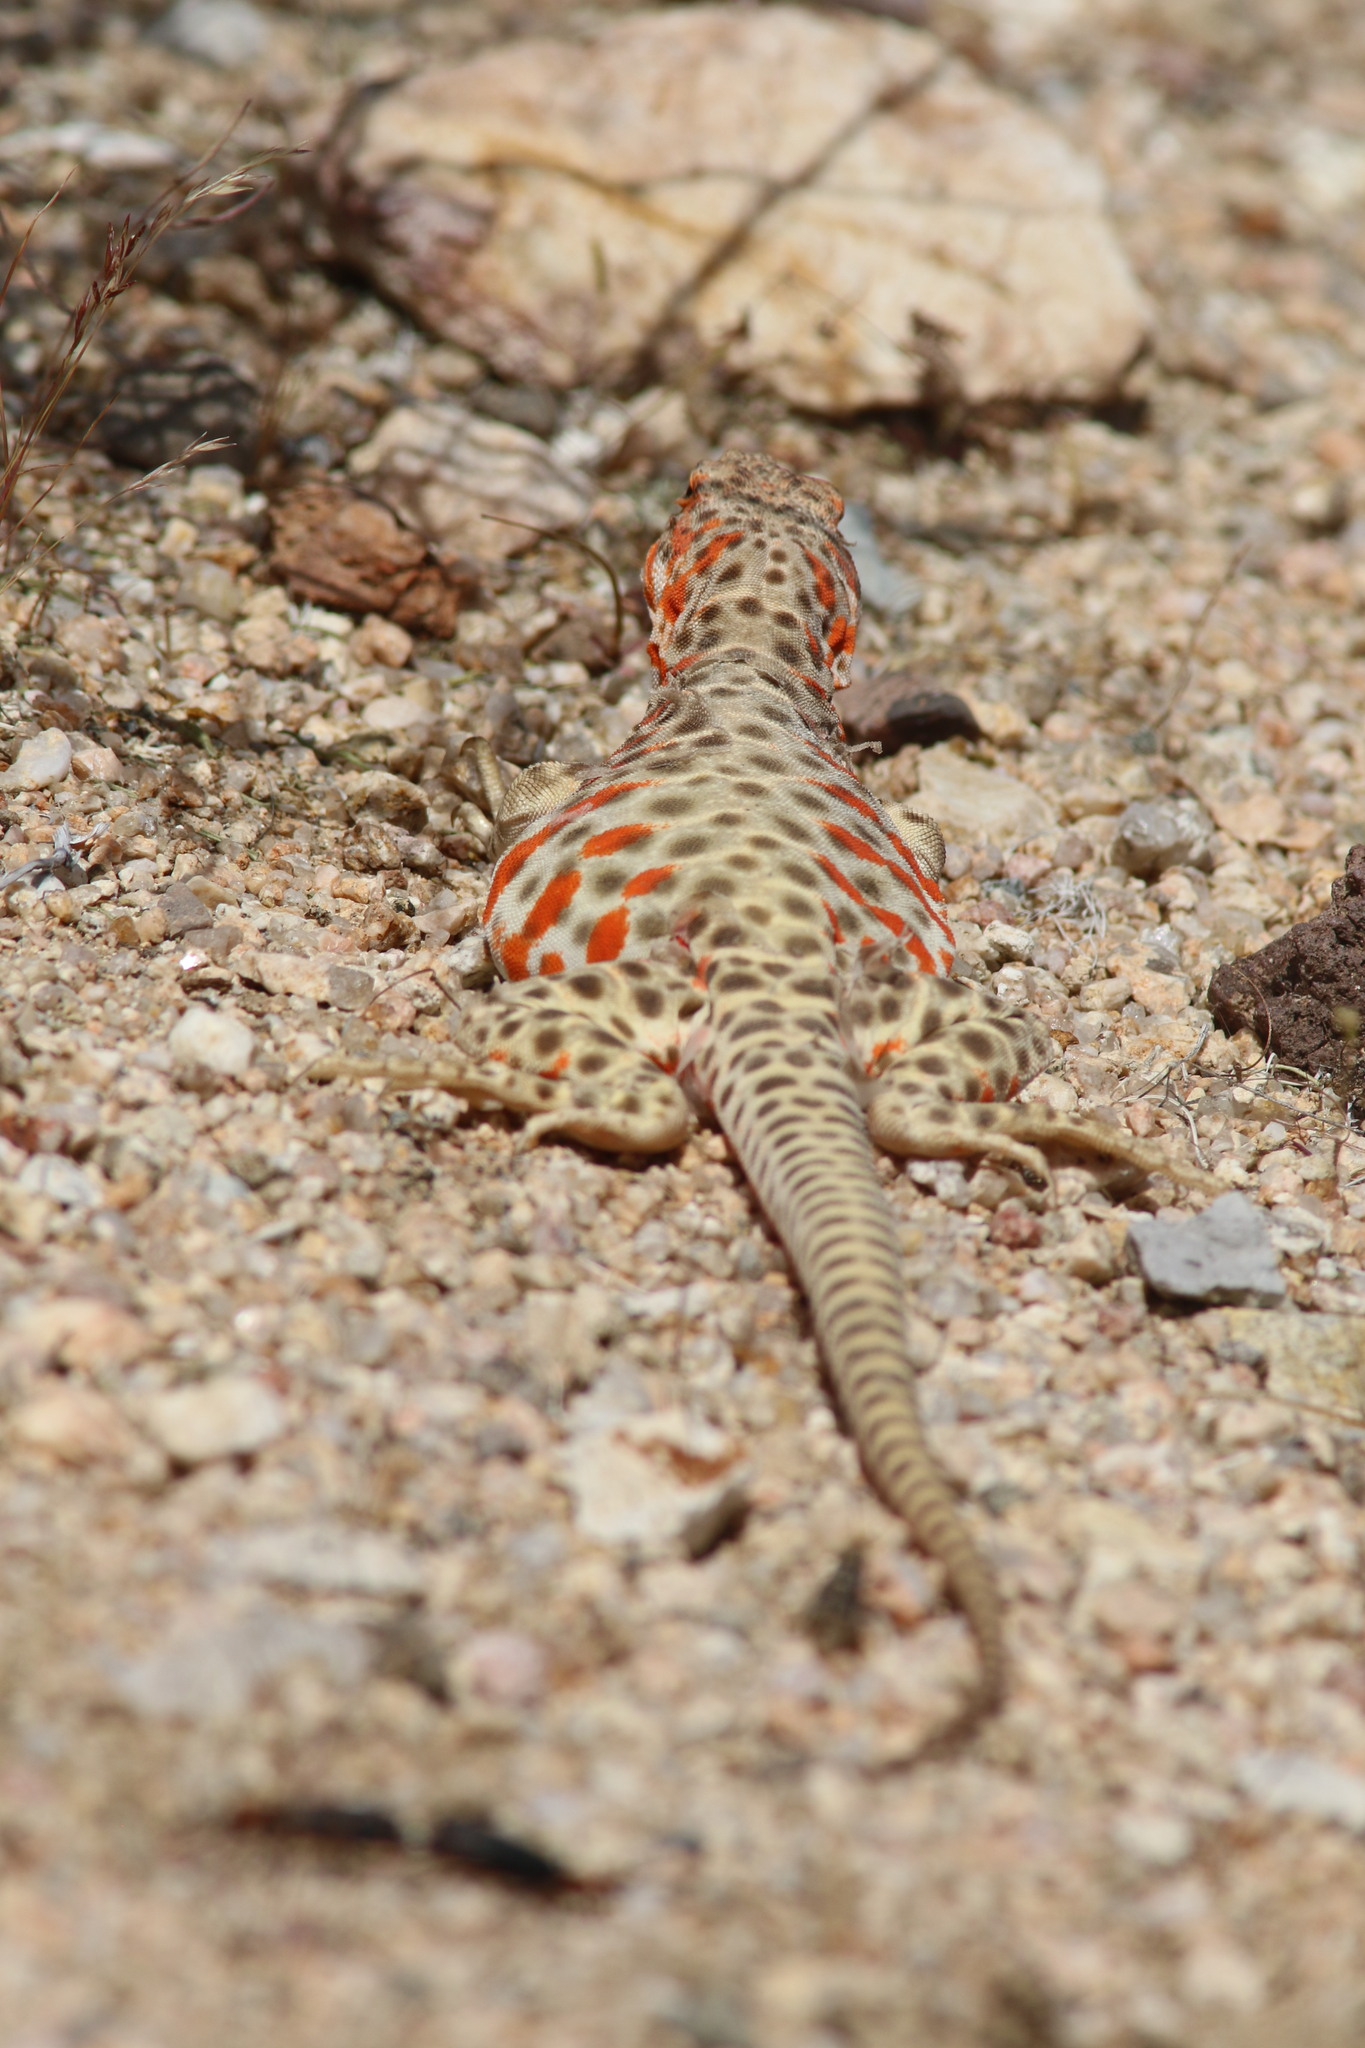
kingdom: Animalia
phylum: Chordata
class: Squamata
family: Crotaphytidae
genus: Gambelia
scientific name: Gambelia wislizenii
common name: Longnose leopard lizard
